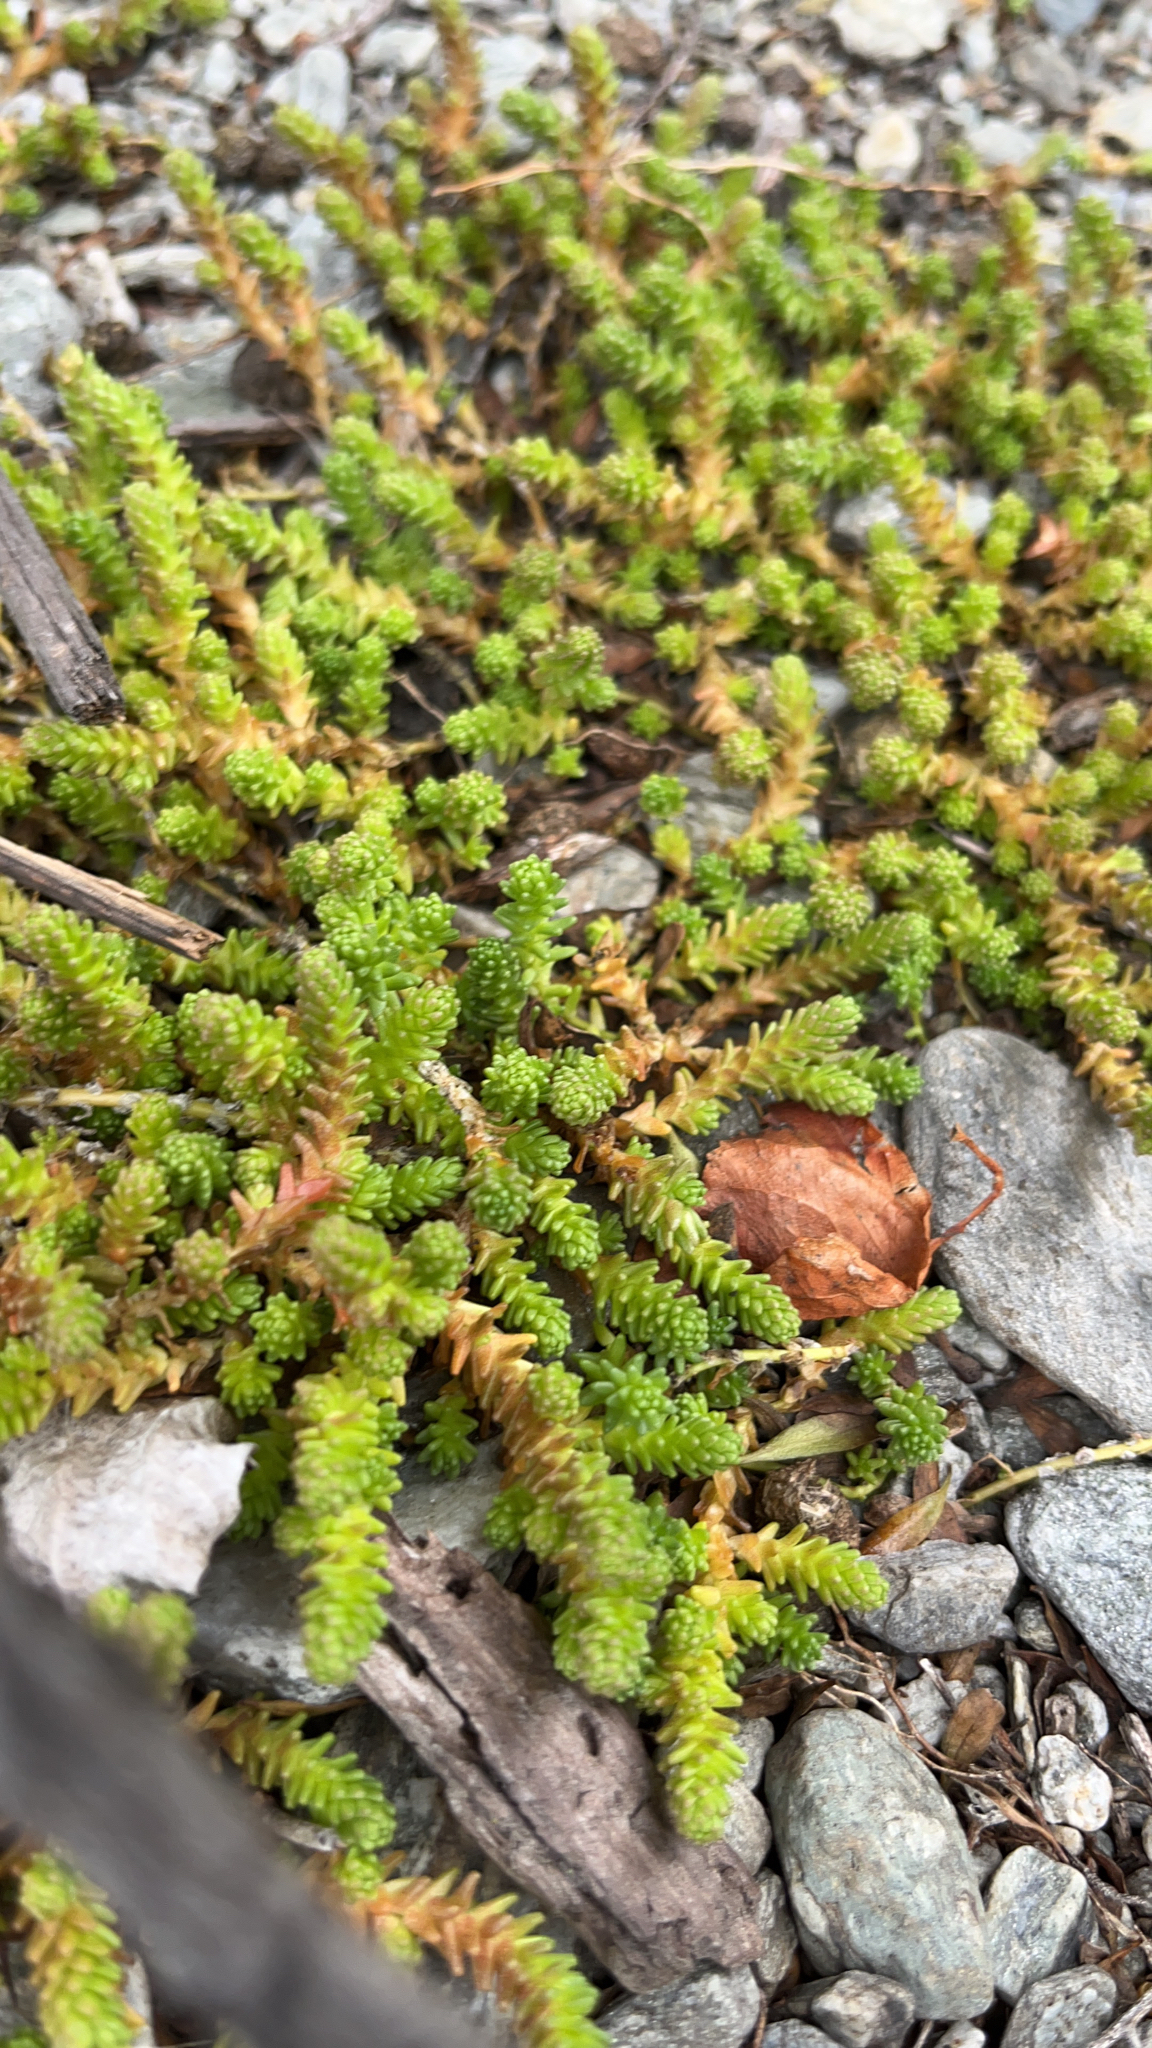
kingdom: Plantae
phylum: Tracheophyta
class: Magnoliopsida
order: Saxifragales
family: Crassulaceae
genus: Sedum
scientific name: Sedum acre
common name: Biting stonecrop
